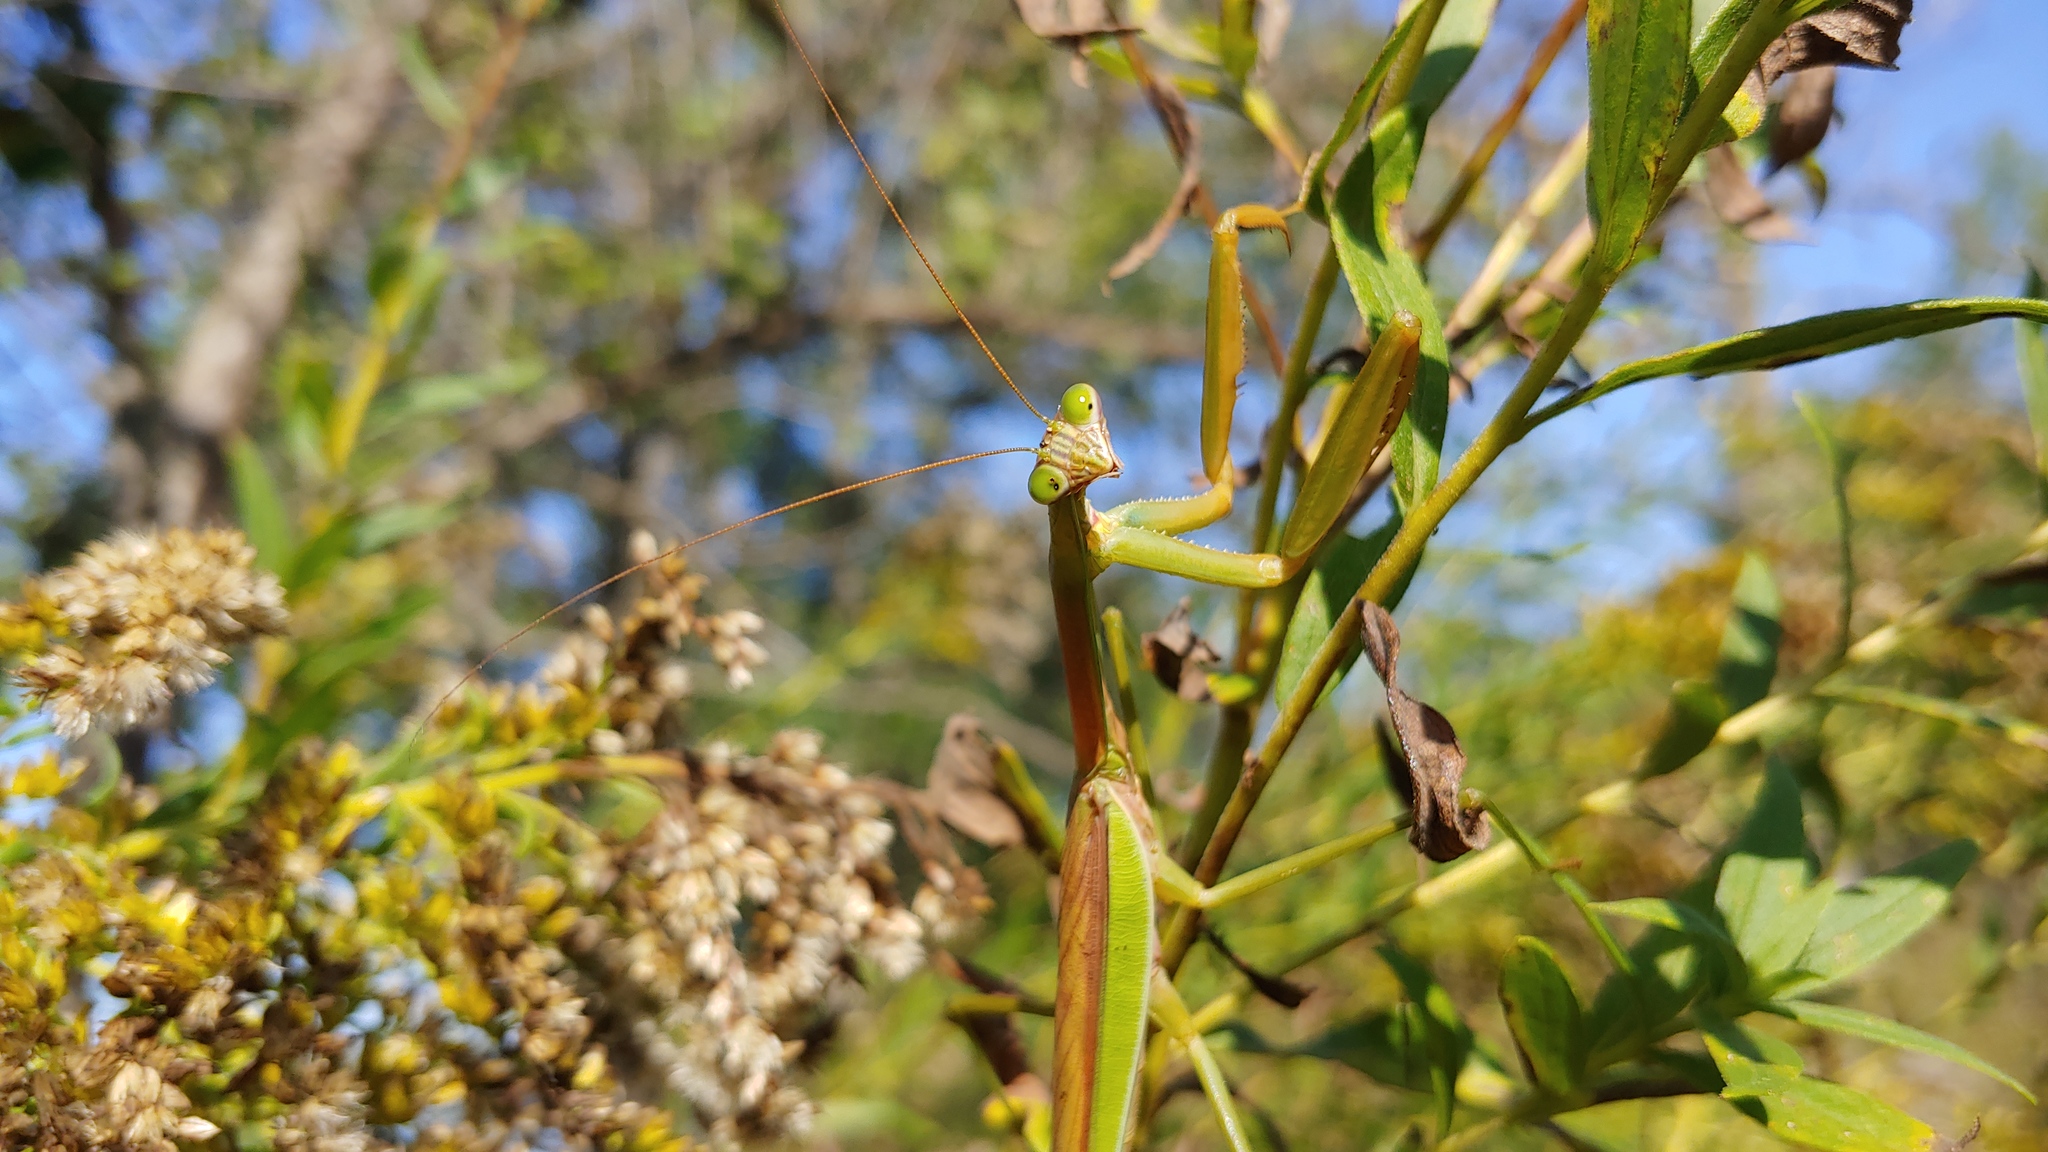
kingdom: Animalia
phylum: Arthropoda
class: Insecta
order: Mantodea
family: Mantidae
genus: Tenodera
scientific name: Tenodera sinensis
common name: Chinese mantis
